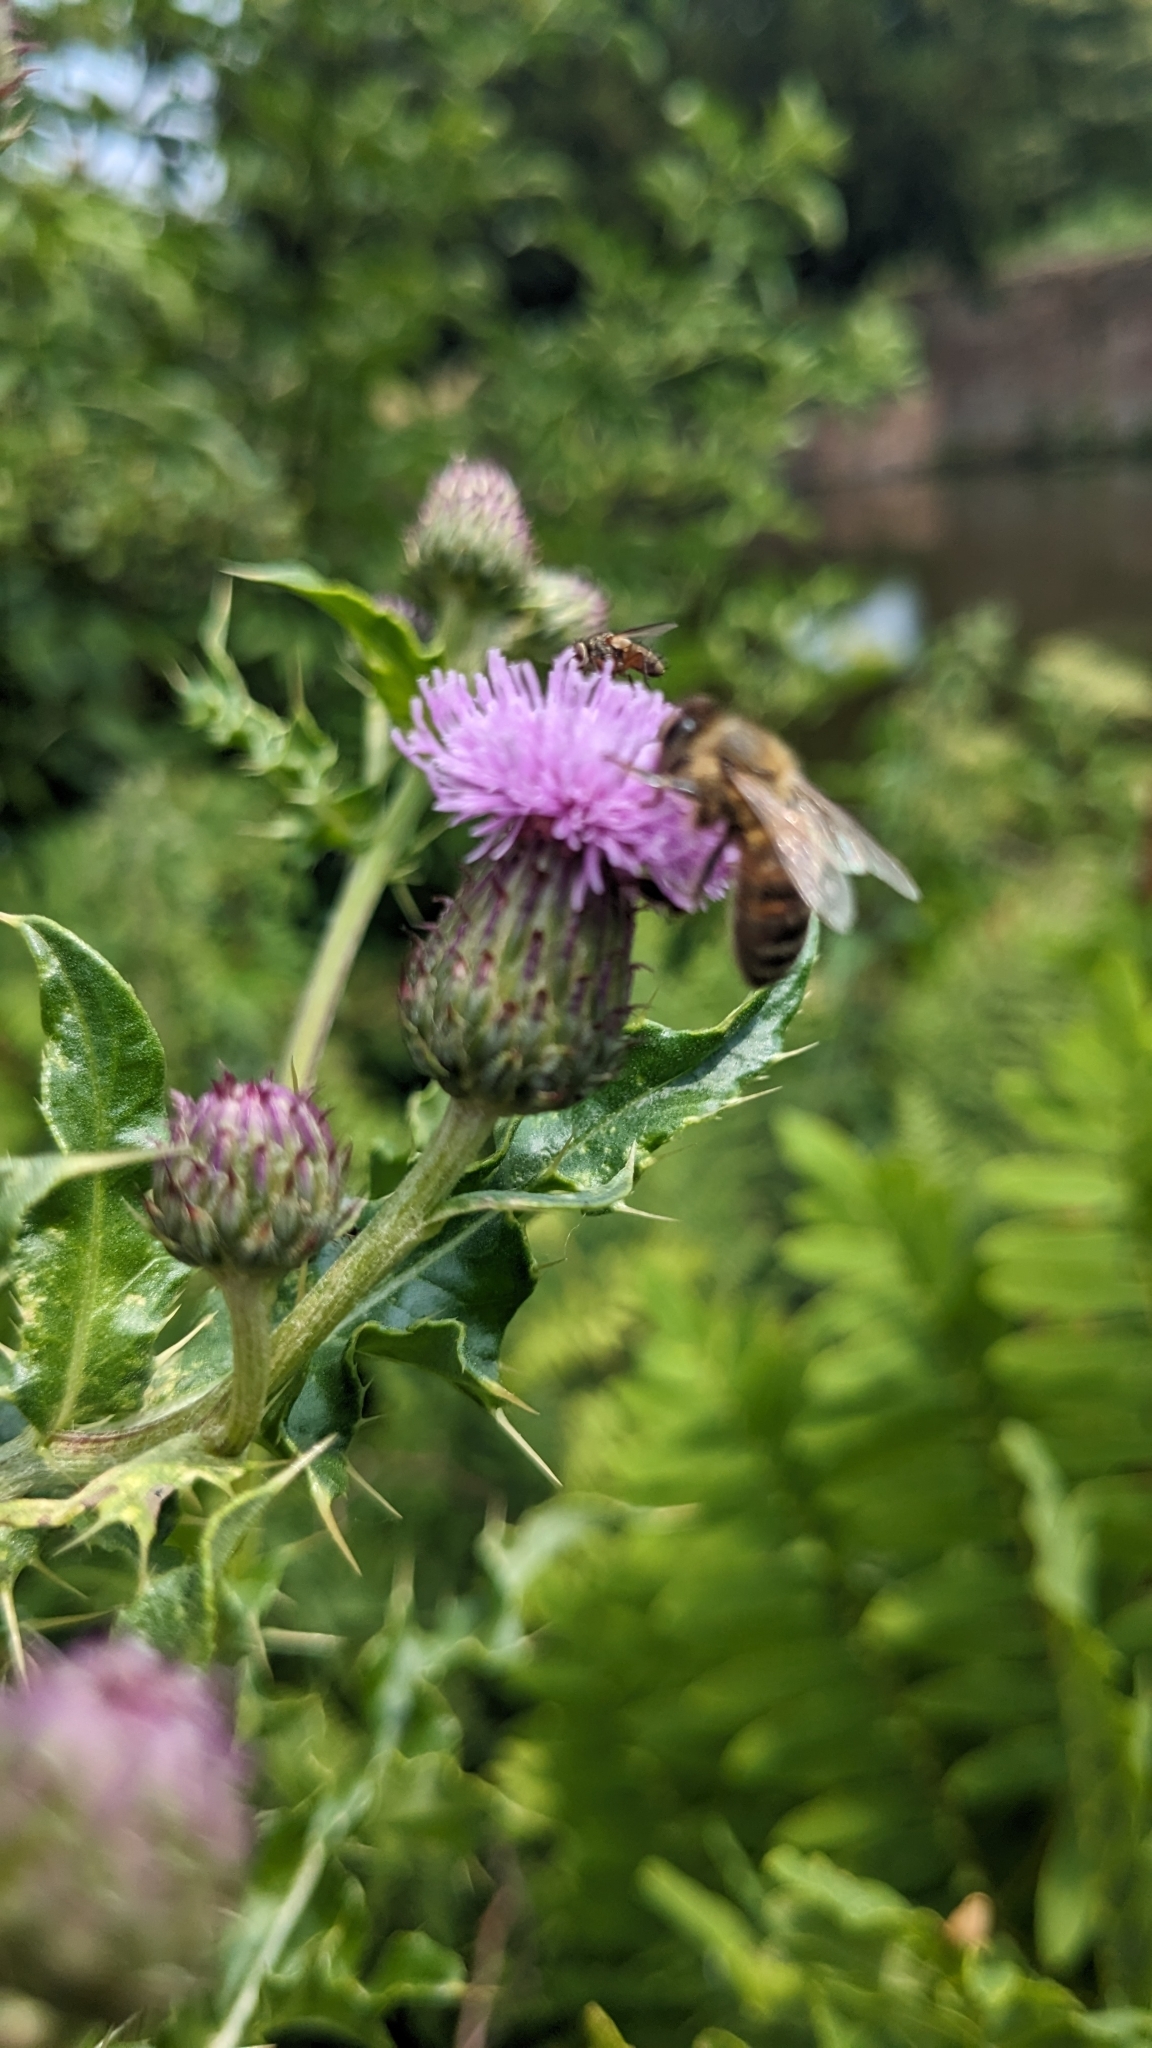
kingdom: Plantae
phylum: Tracheophyta
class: Magnoliopsida
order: Asterales
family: Asteraceae
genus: Cirsium
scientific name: Cirsium arvense
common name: Creeping thistle
